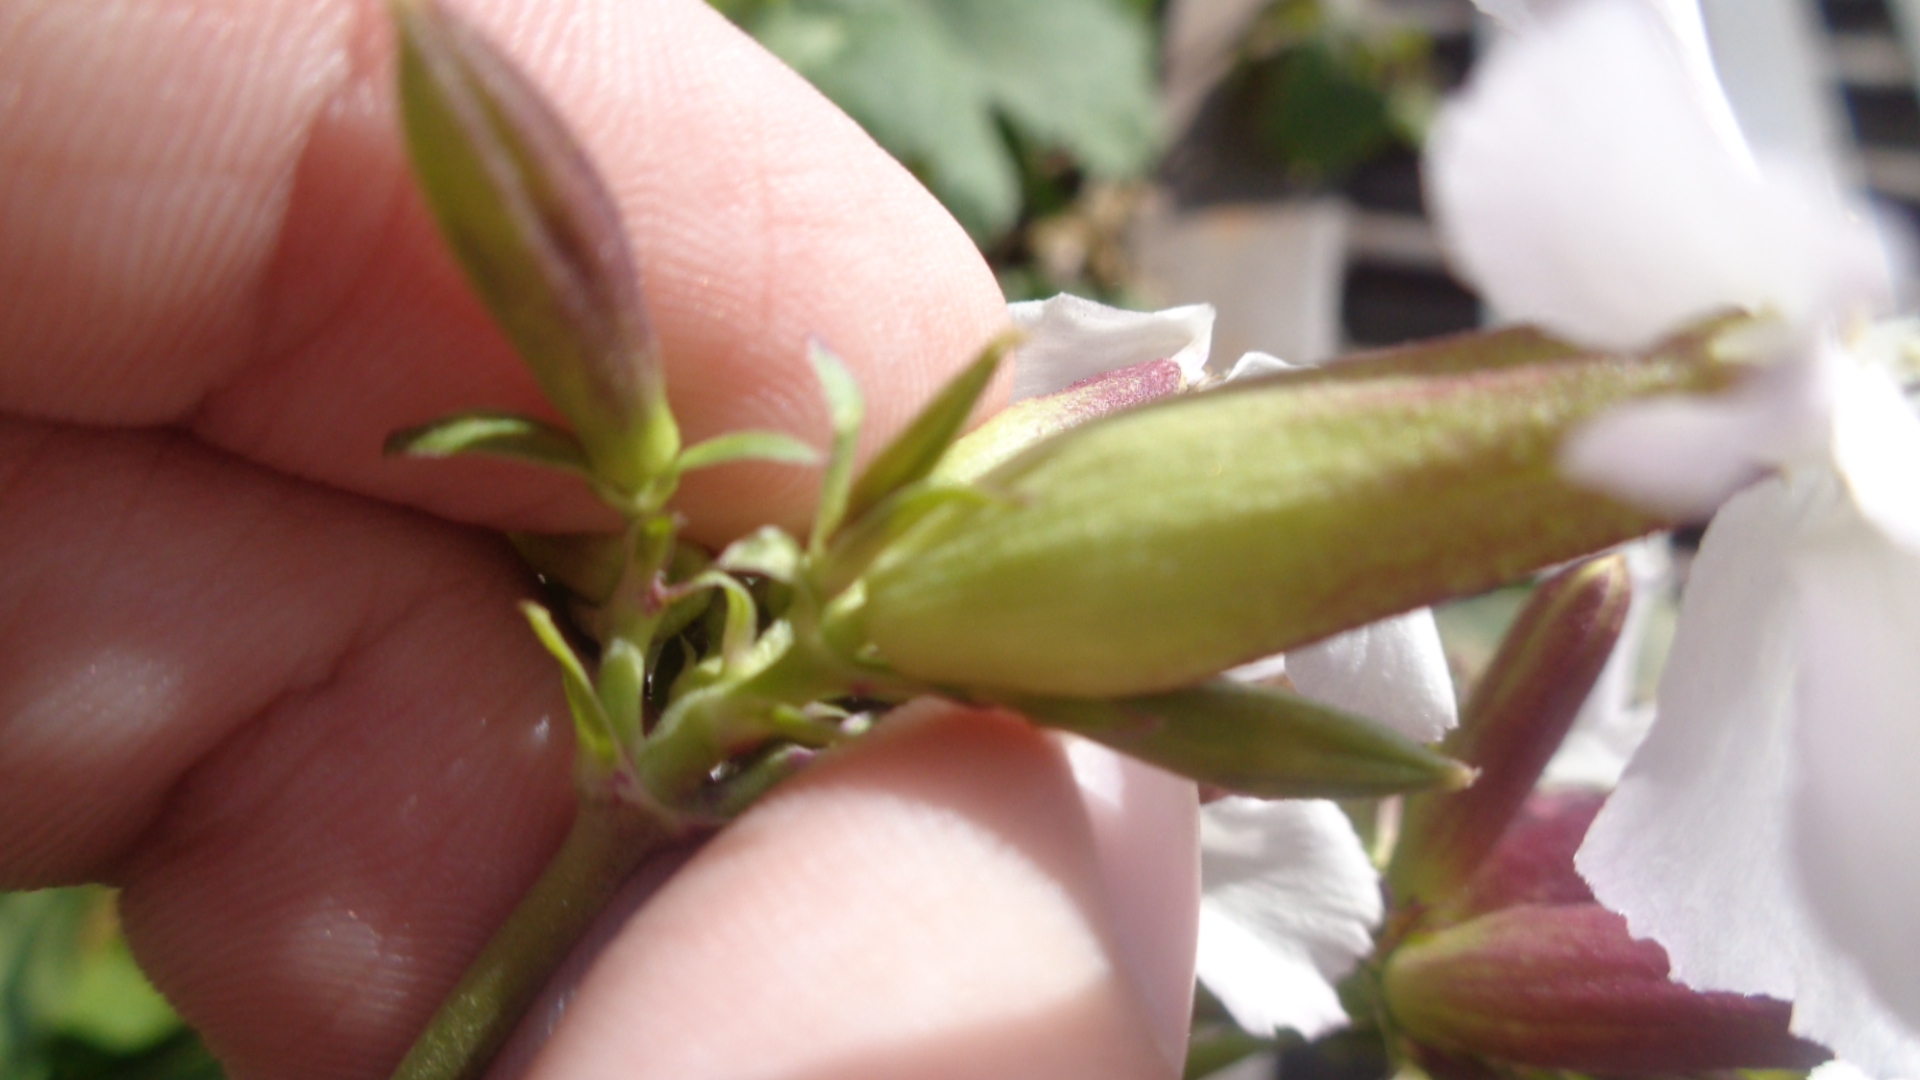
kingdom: Plantae
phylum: Tracheophyta
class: Magnoliopsida
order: Caryophyllales
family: Caryophyllaceae
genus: Saponaria
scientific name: Saponaria officinalis
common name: Soapwort
